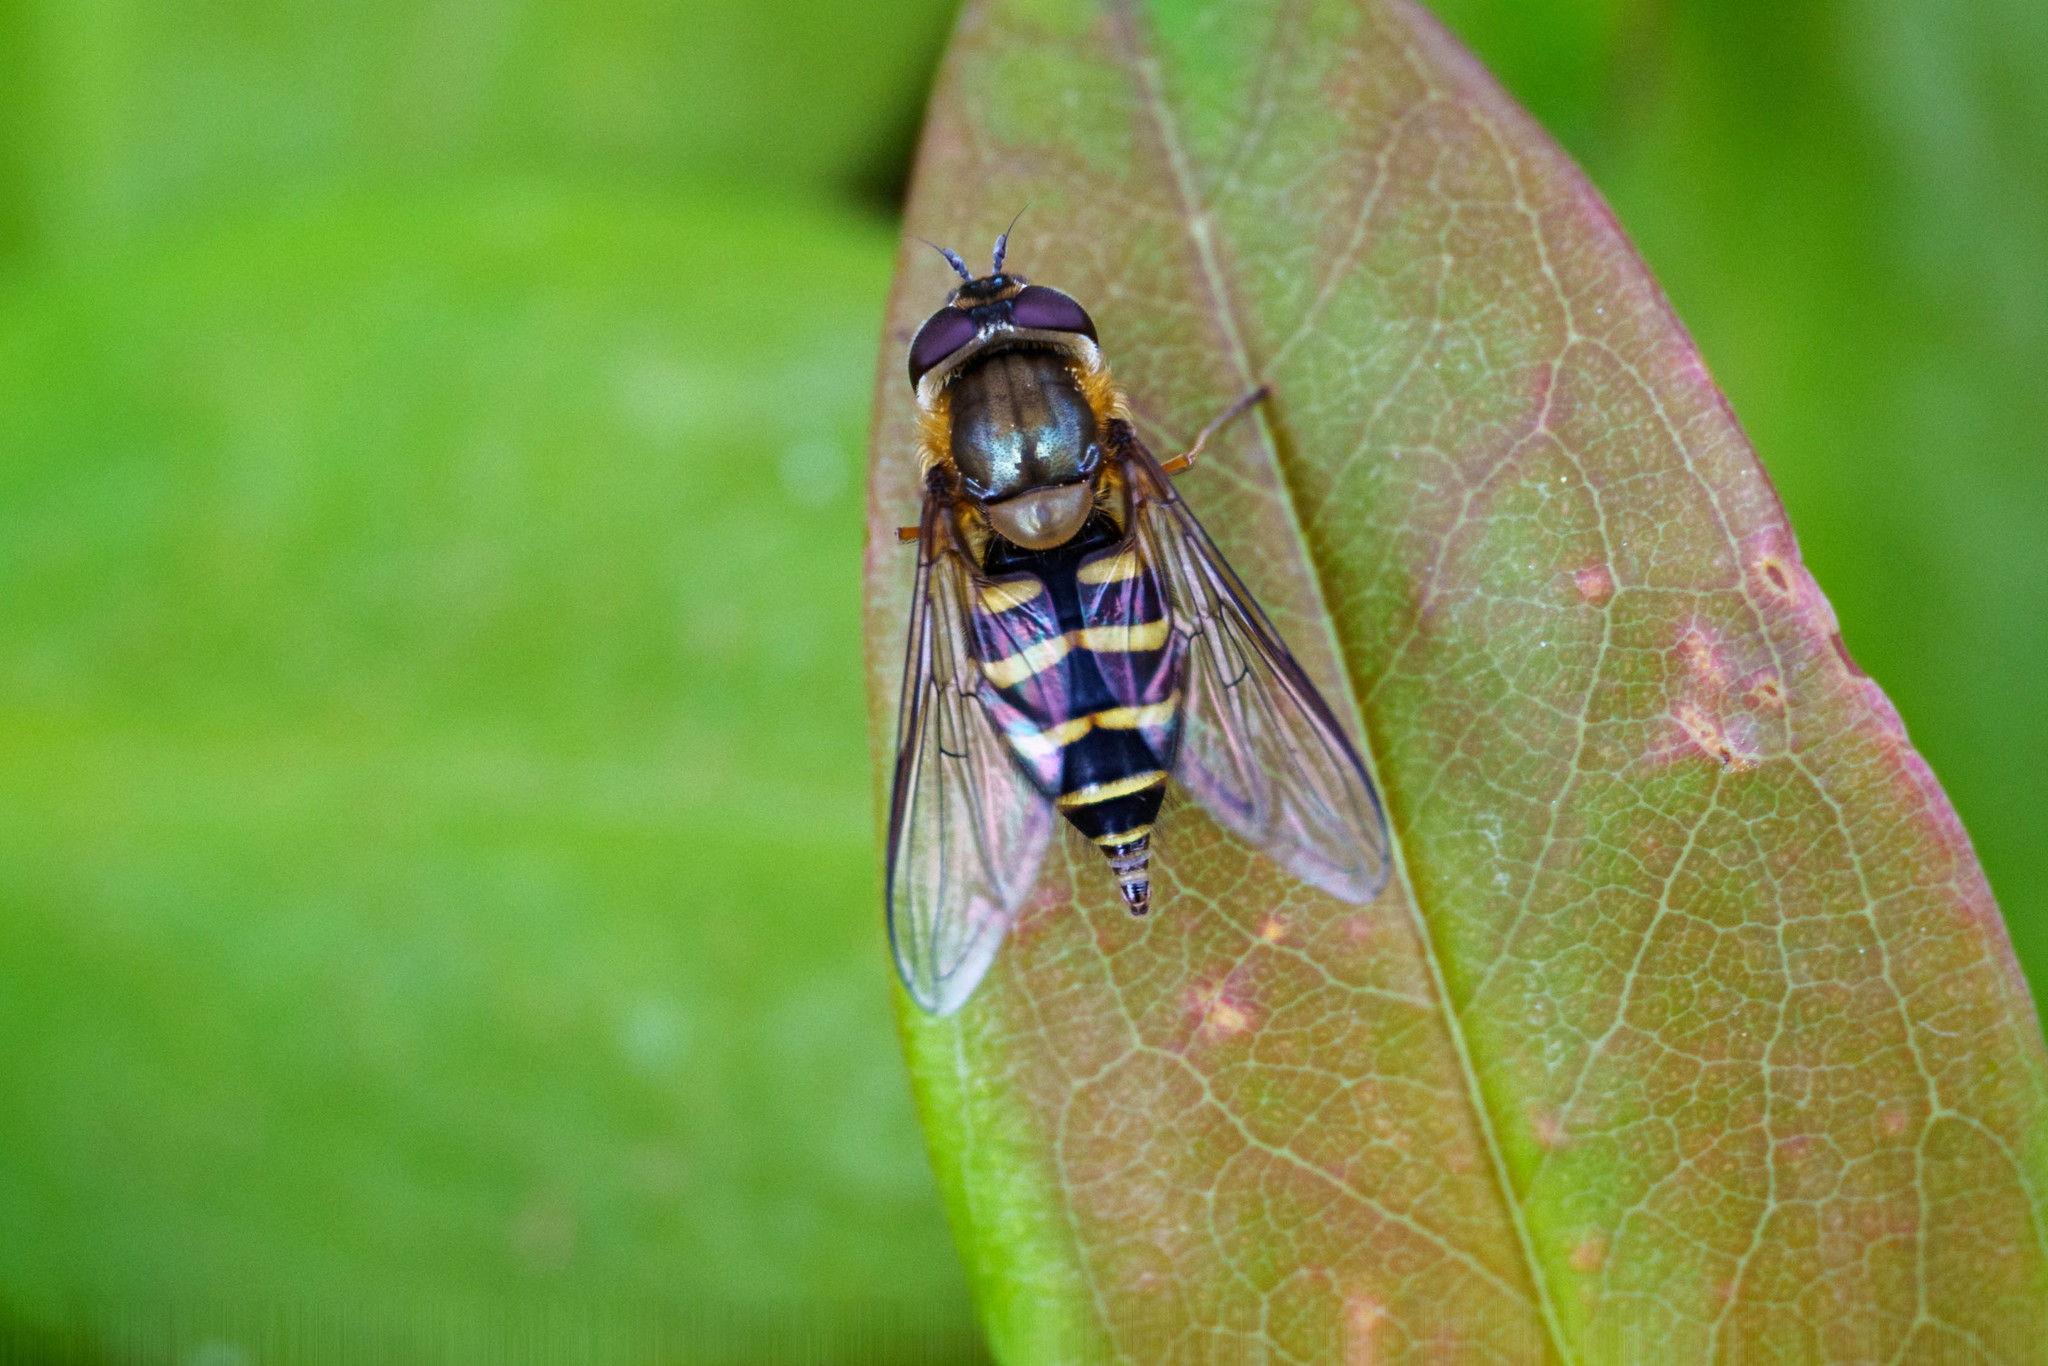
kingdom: Animalia
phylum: Arthropoda
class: Insecta
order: Diptera
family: Syrphidae
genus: Syrphus
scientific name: Syrphus torvus
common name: Hairy-eyed flower fly
